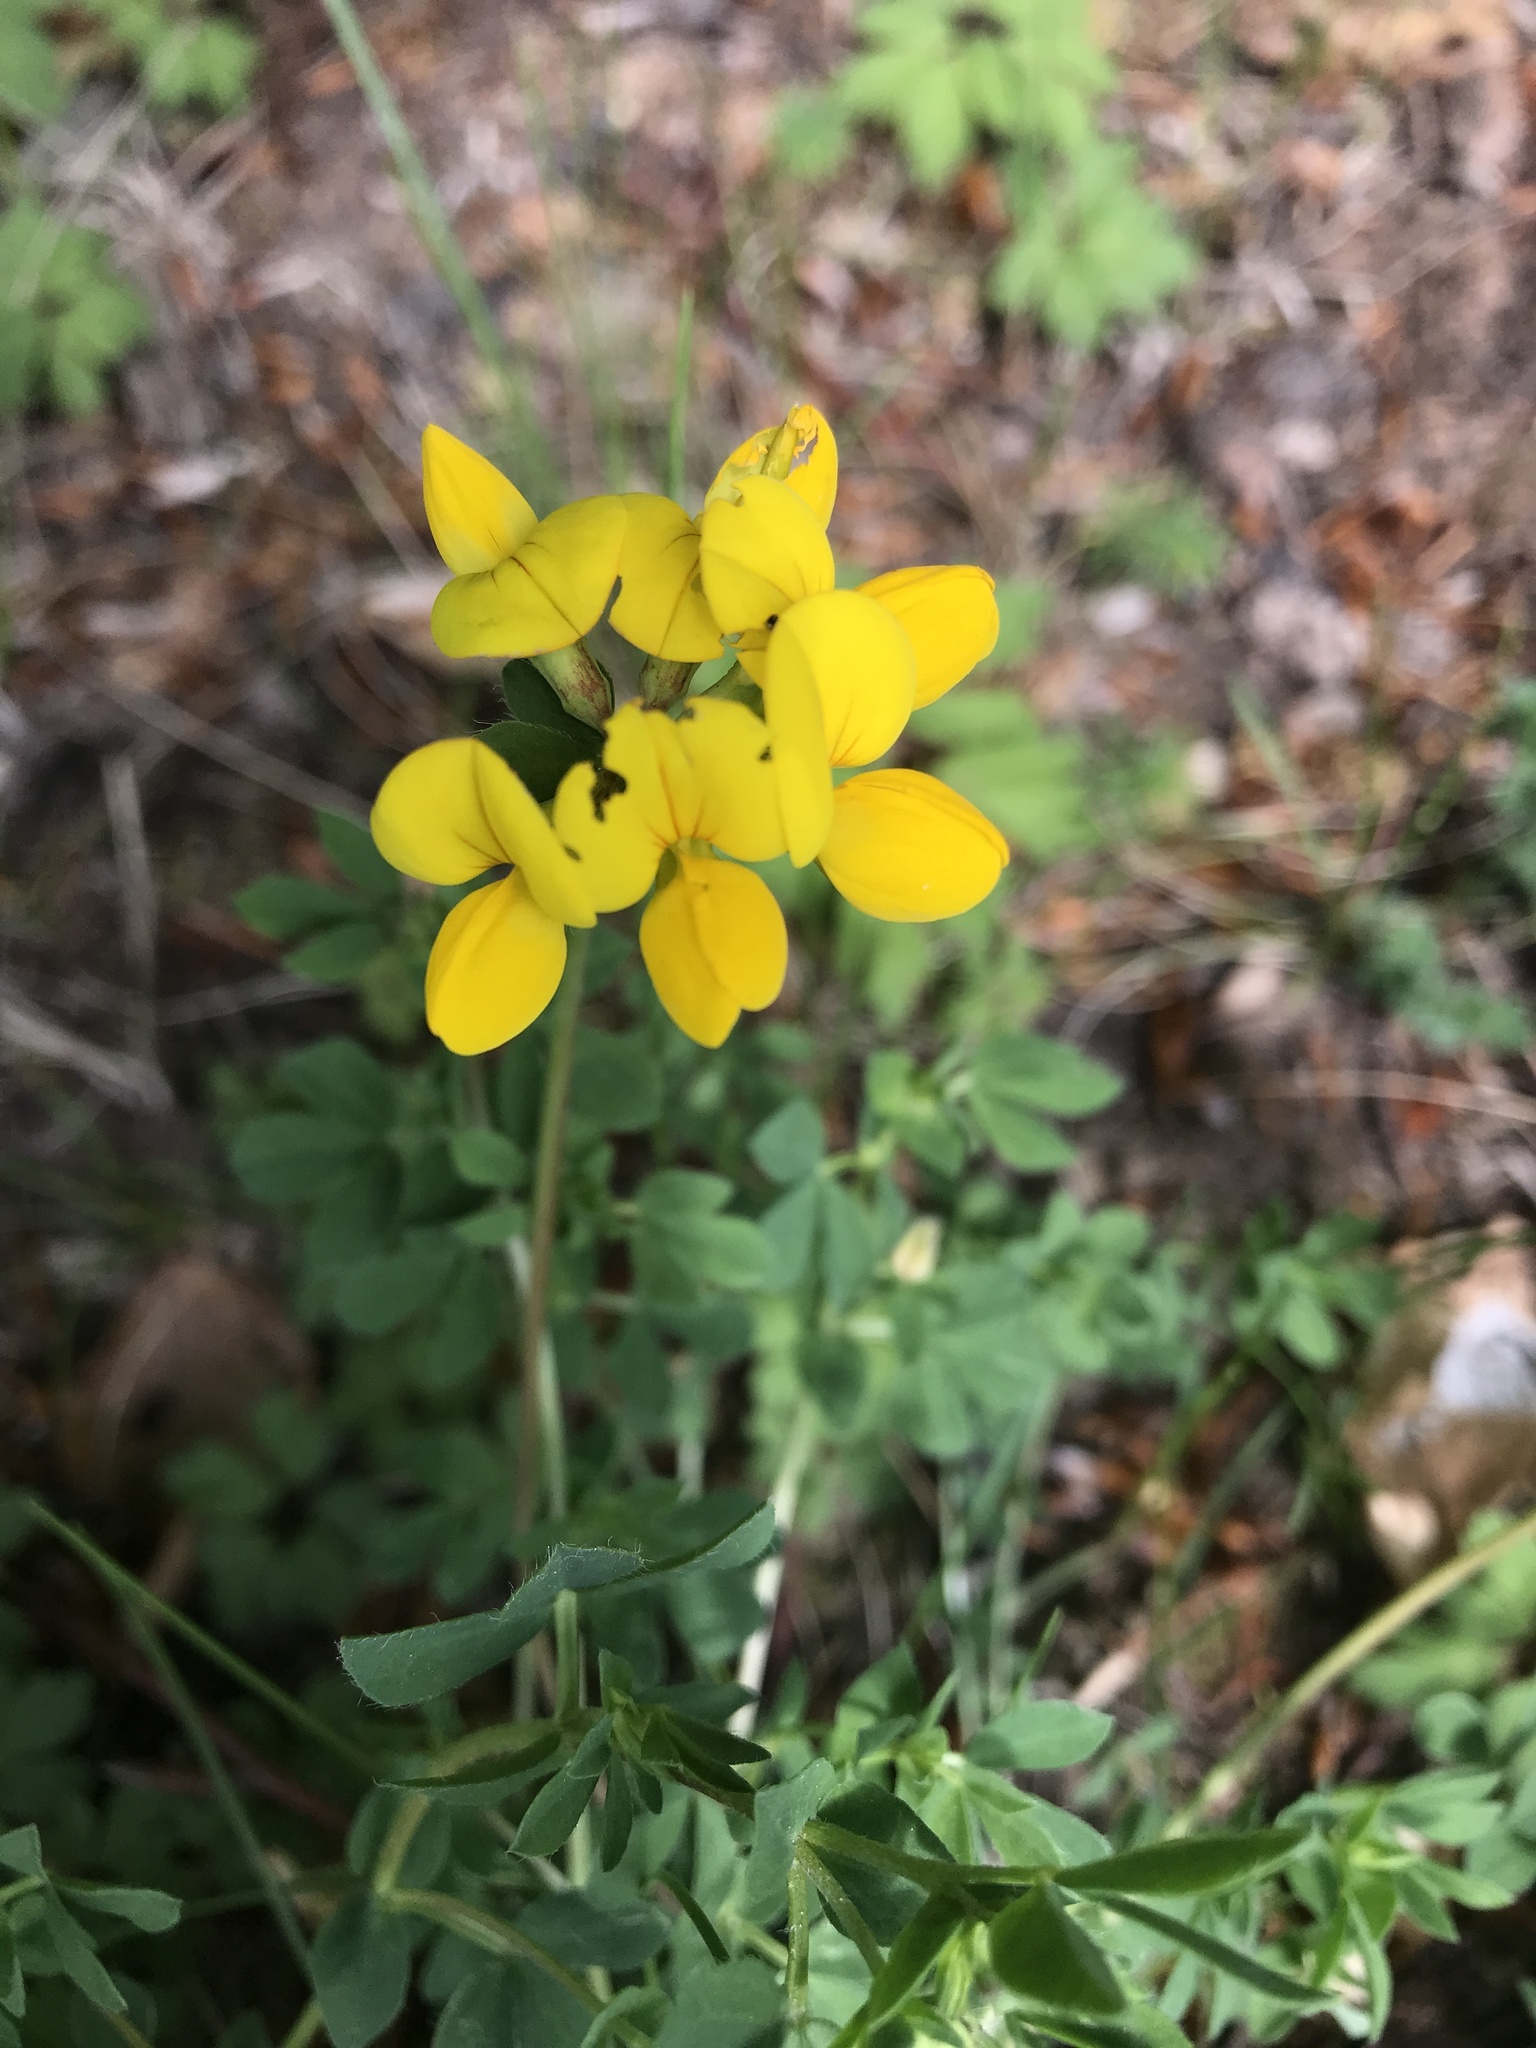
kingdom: Plantae
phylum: Tracheophyta
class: Magnoliopsida
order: Fabales
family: Fabaceae
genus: Lotus
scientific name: Lotus corniculatus
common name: Common bird's-foot-trefoil
